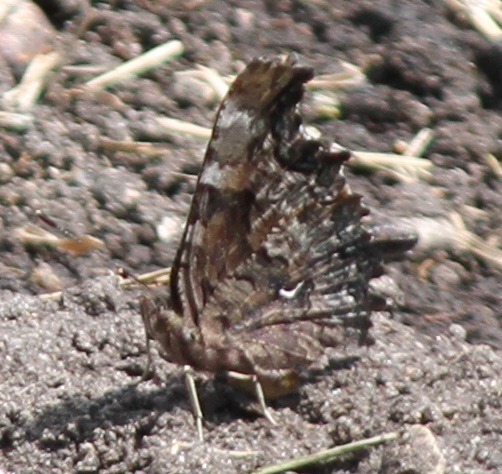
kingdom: Animalia
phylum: Arthropoda
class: Insecta
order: Lepidoptera
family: Nymphalidae
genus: Polygonia
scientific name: Polygonia faunus
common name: Green comma
